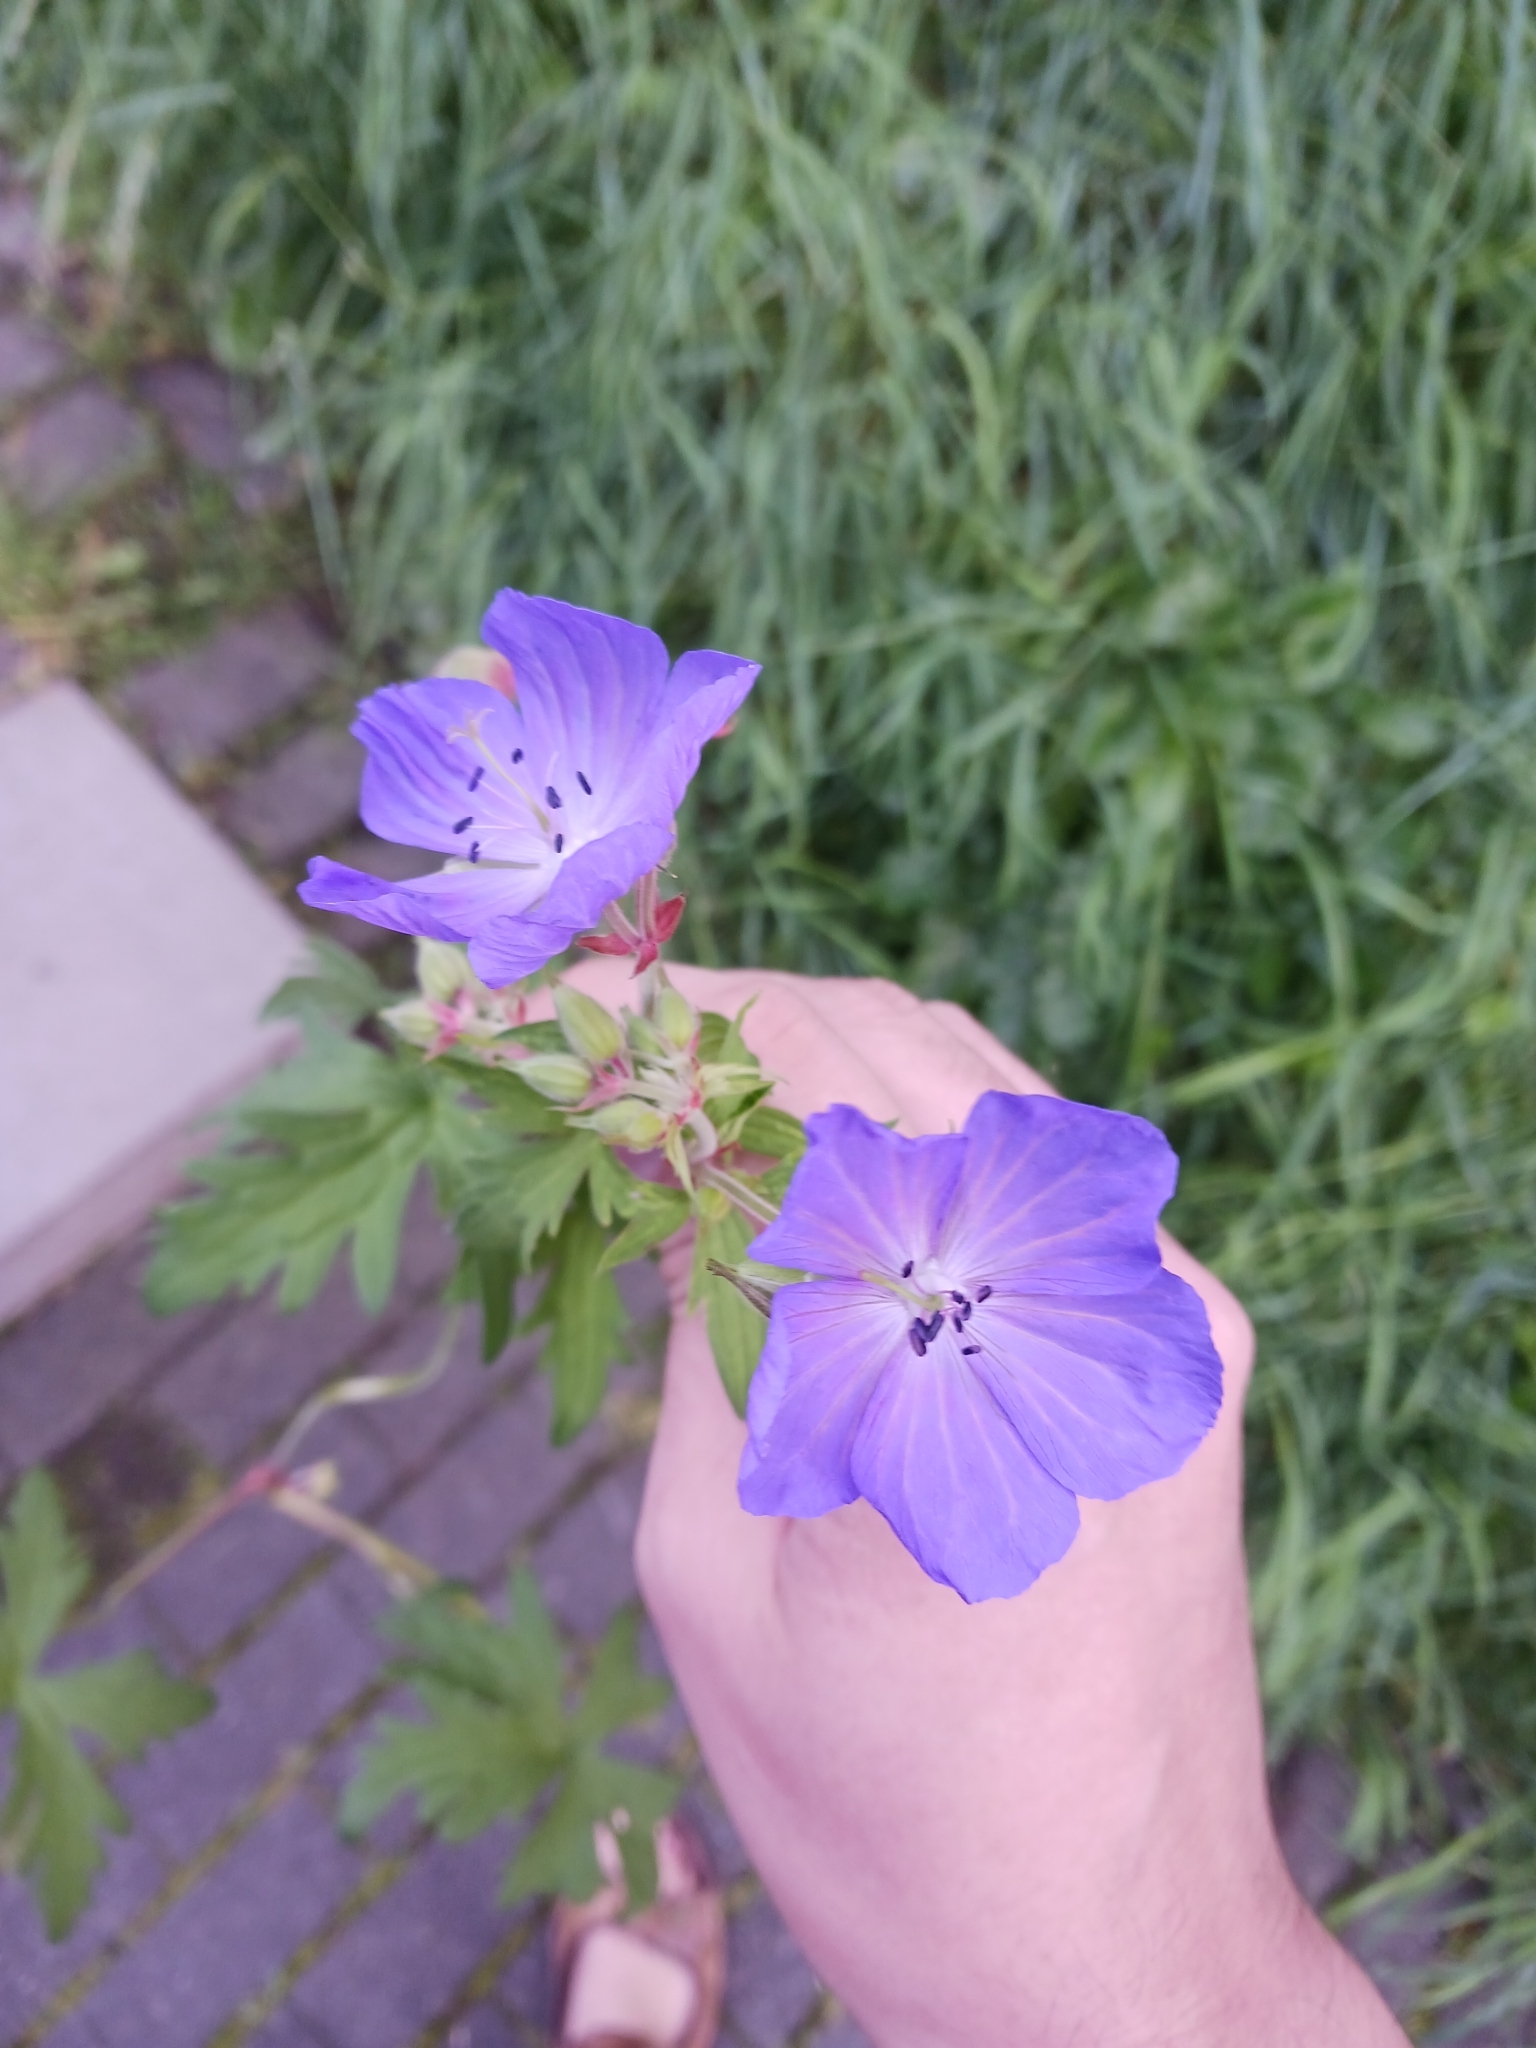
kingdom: Plantae
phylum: Tracheophyta
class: Magnoliopsida
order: Geraniales
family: Geraniaceae
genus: Geranium
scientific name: Geranium pratense
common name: Meadow crane's-bill
